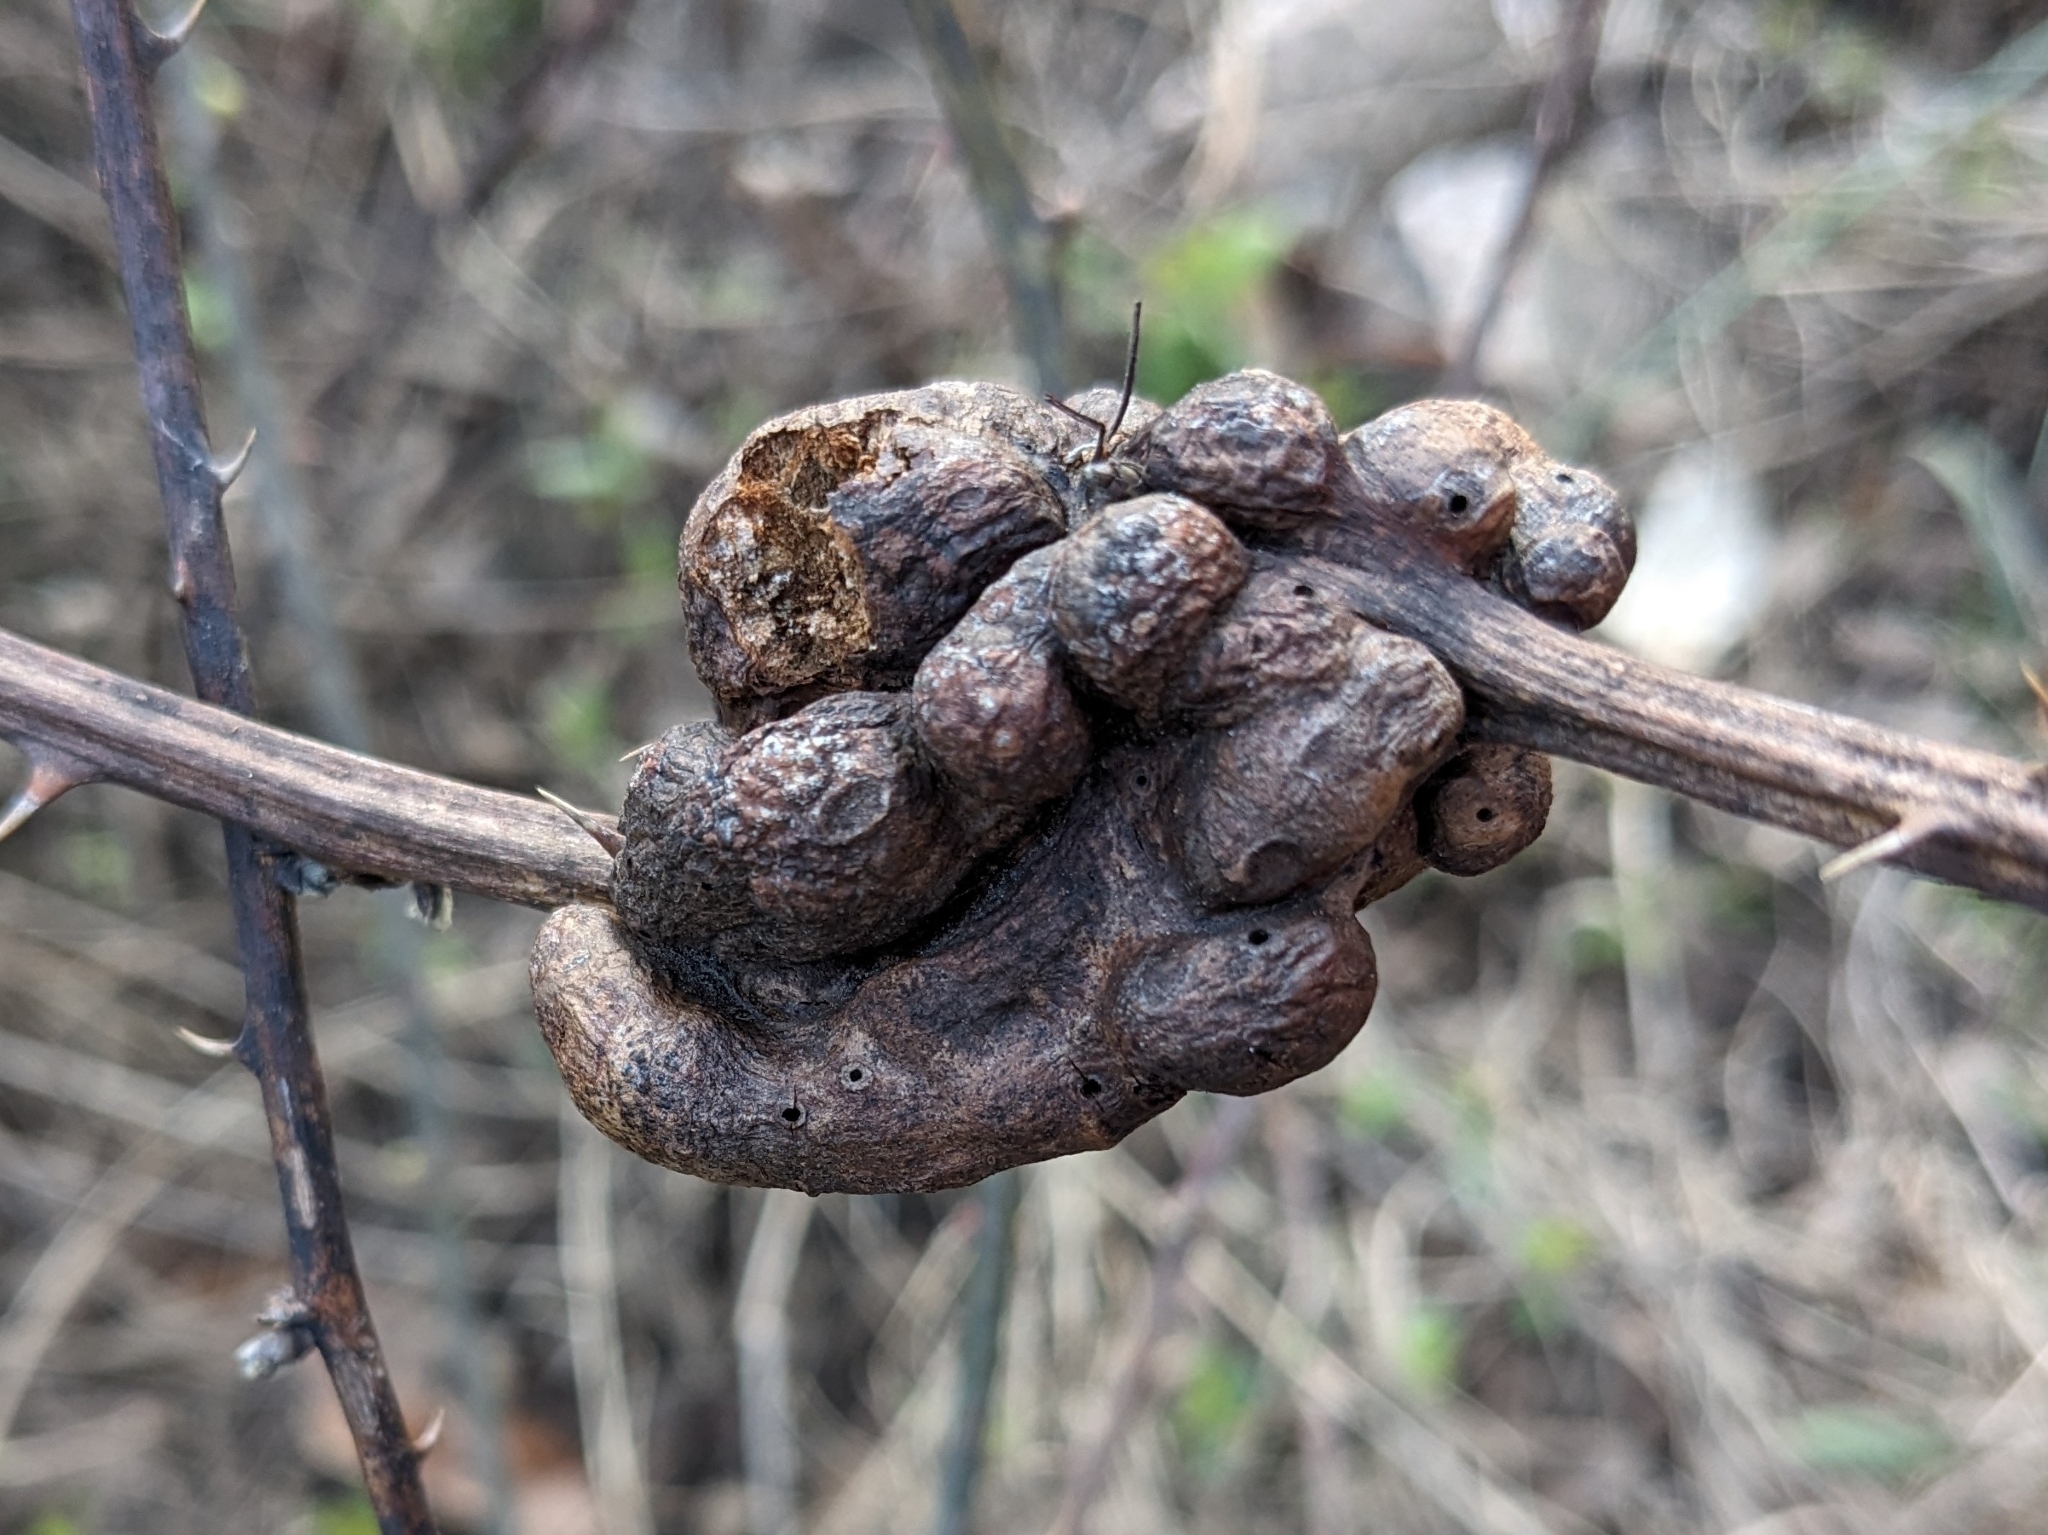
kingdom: Animalia
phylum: Arthropoda
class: Insecta
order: Hymenoptera
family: Cynipidae
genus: Diastrophus
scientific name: Diastrophus
